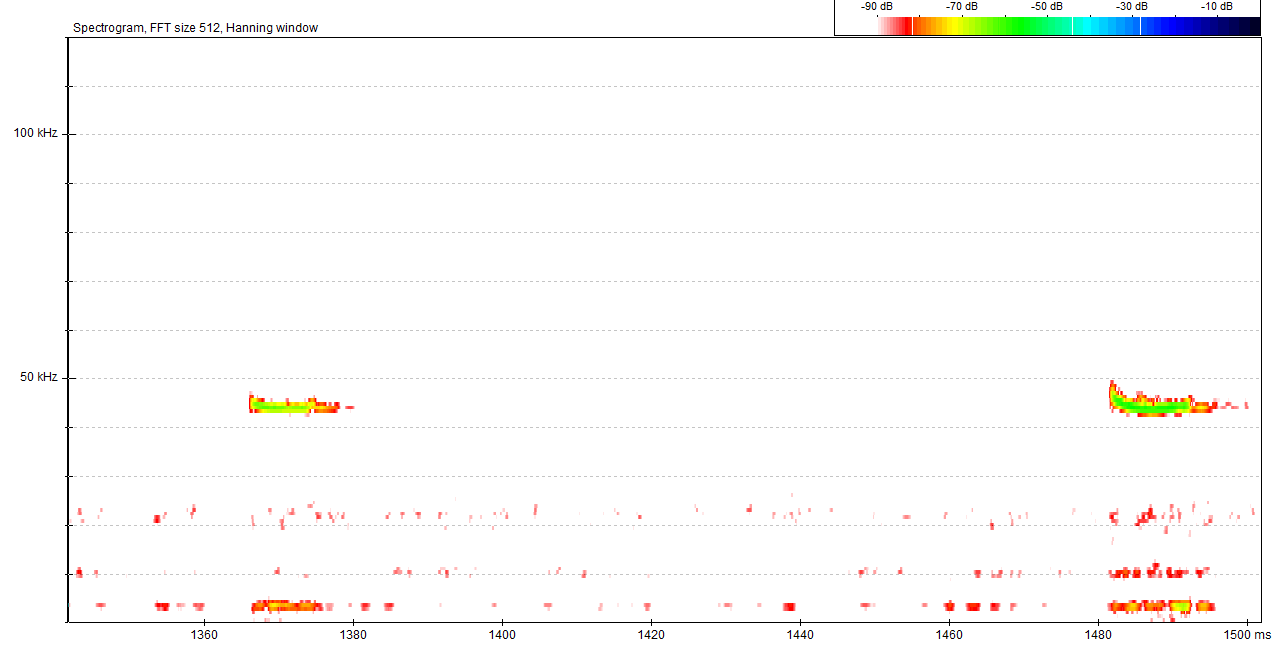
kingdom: Animalia
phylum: Chordata
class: Mammalia
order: Chiroptera
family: Vespertilionidae
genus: Pipistrellus
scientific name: Pipistrellus pipistrellus
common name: Common pipistrelle
